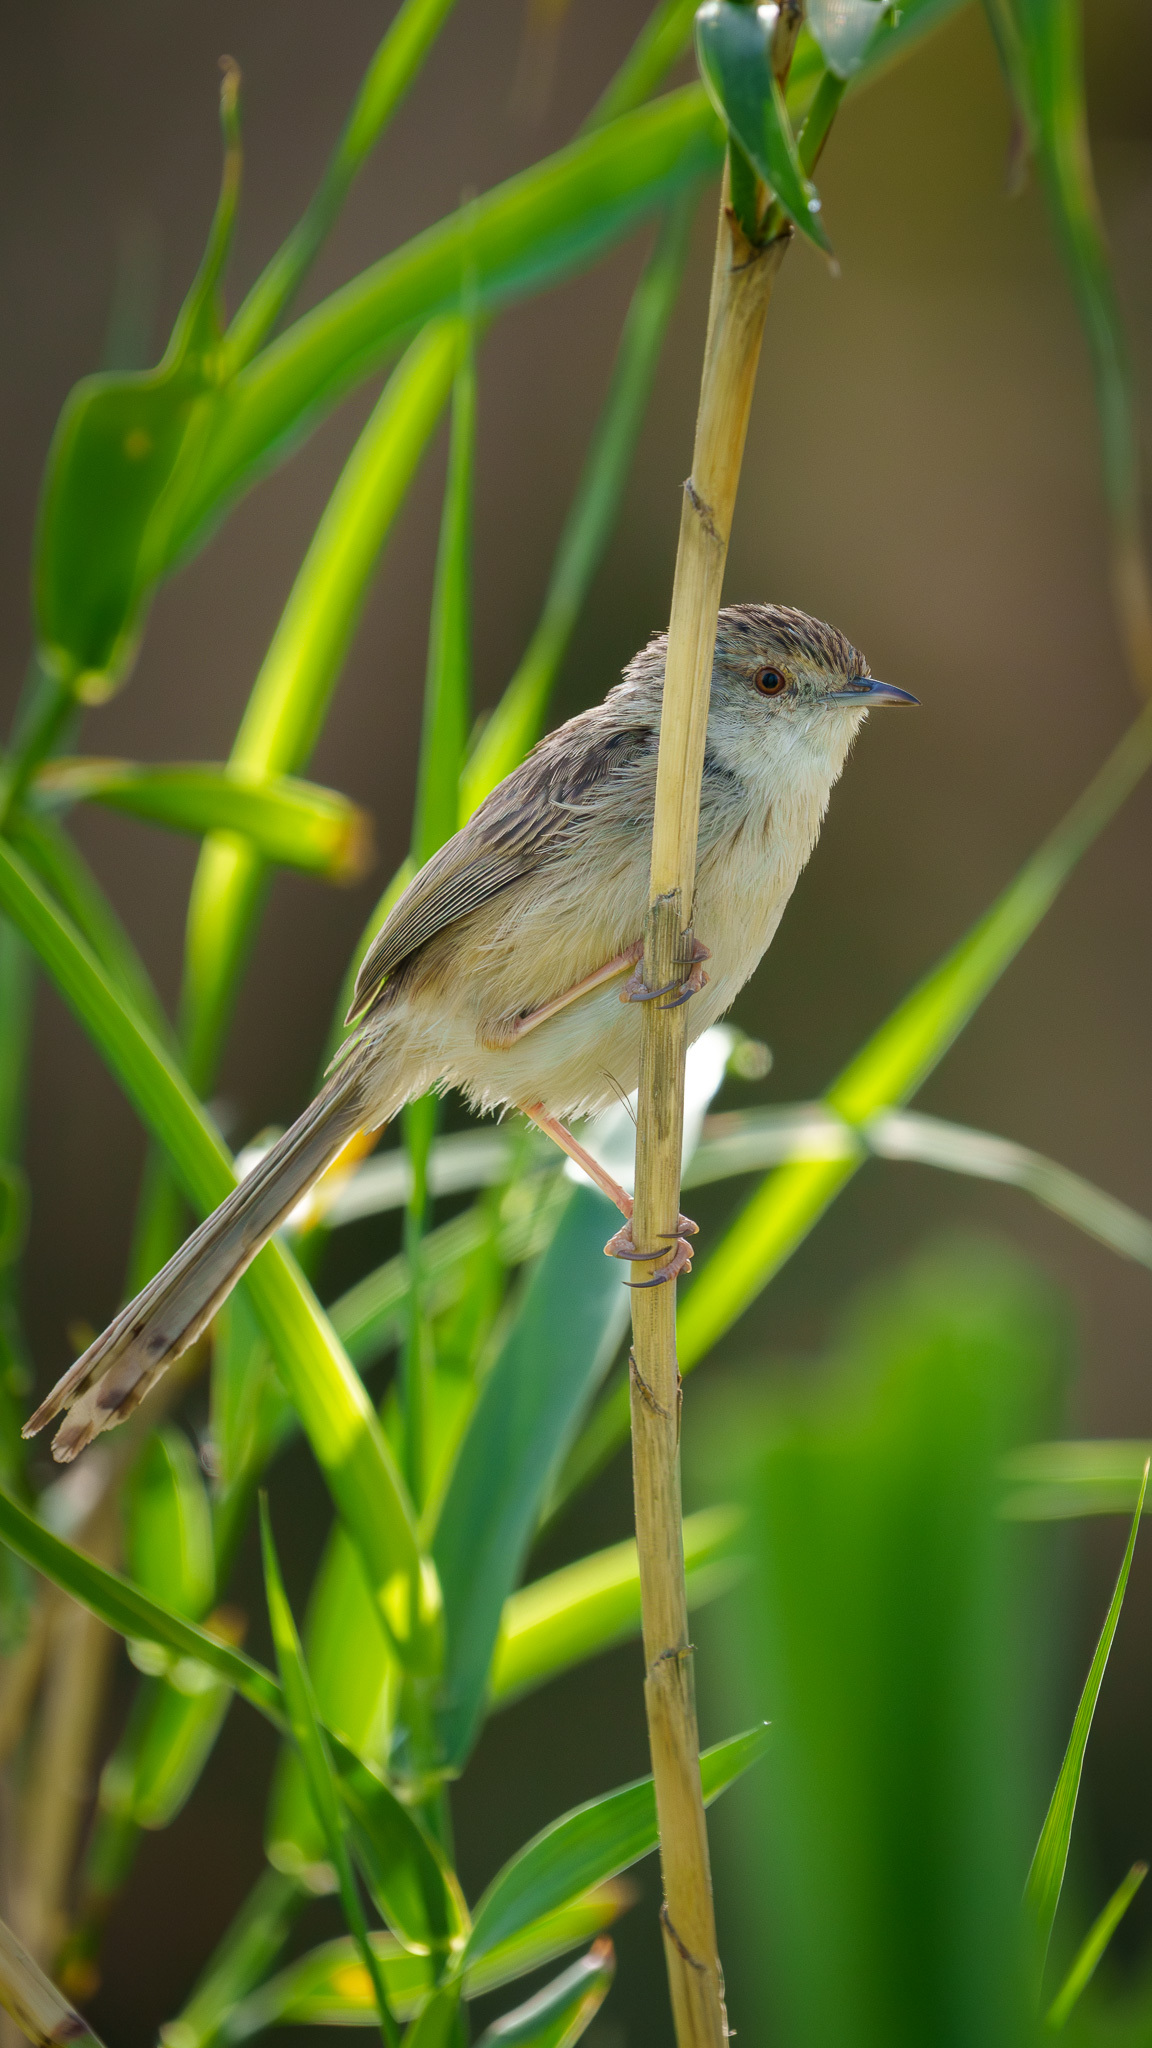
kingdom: Animalia
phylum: Chordata
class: Aves
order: Passeriformes
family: Cisticolidae
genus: Prinia
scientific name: Prinia lepida
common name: Delicate prinia
